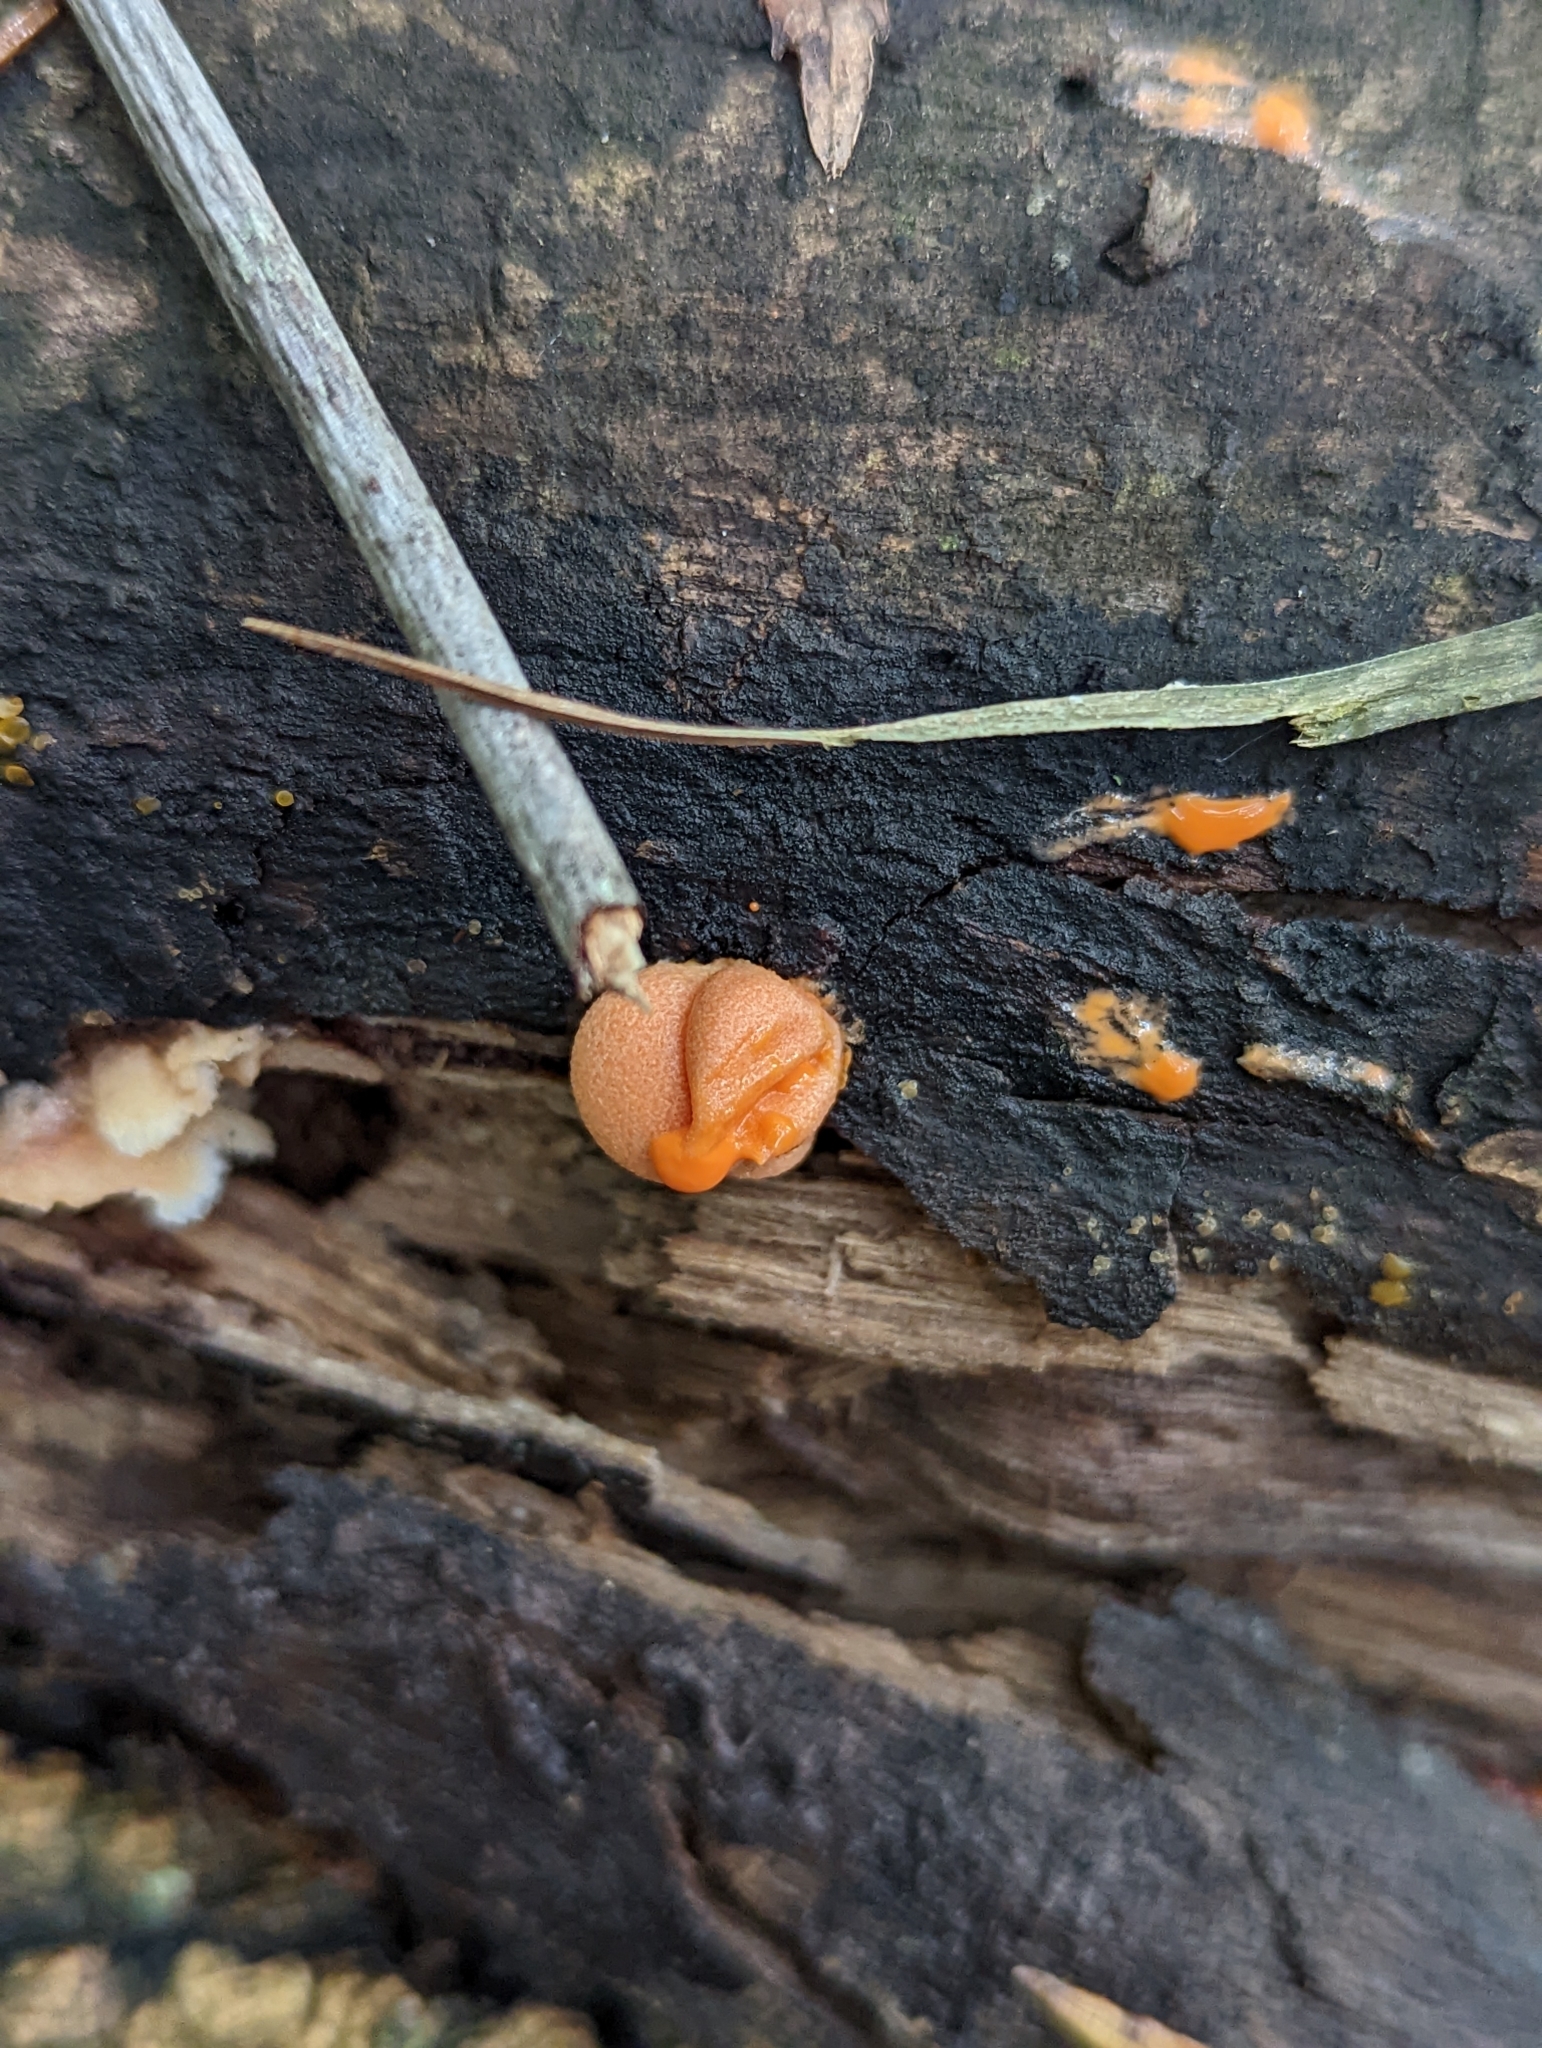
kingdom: Protozoa
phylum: Mycetozoa
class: Myxomycetes
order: Cribrariales
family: Tubiferaceae
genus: Lycogala
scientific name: Lycogala epidendrum
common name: Wolf's milk
